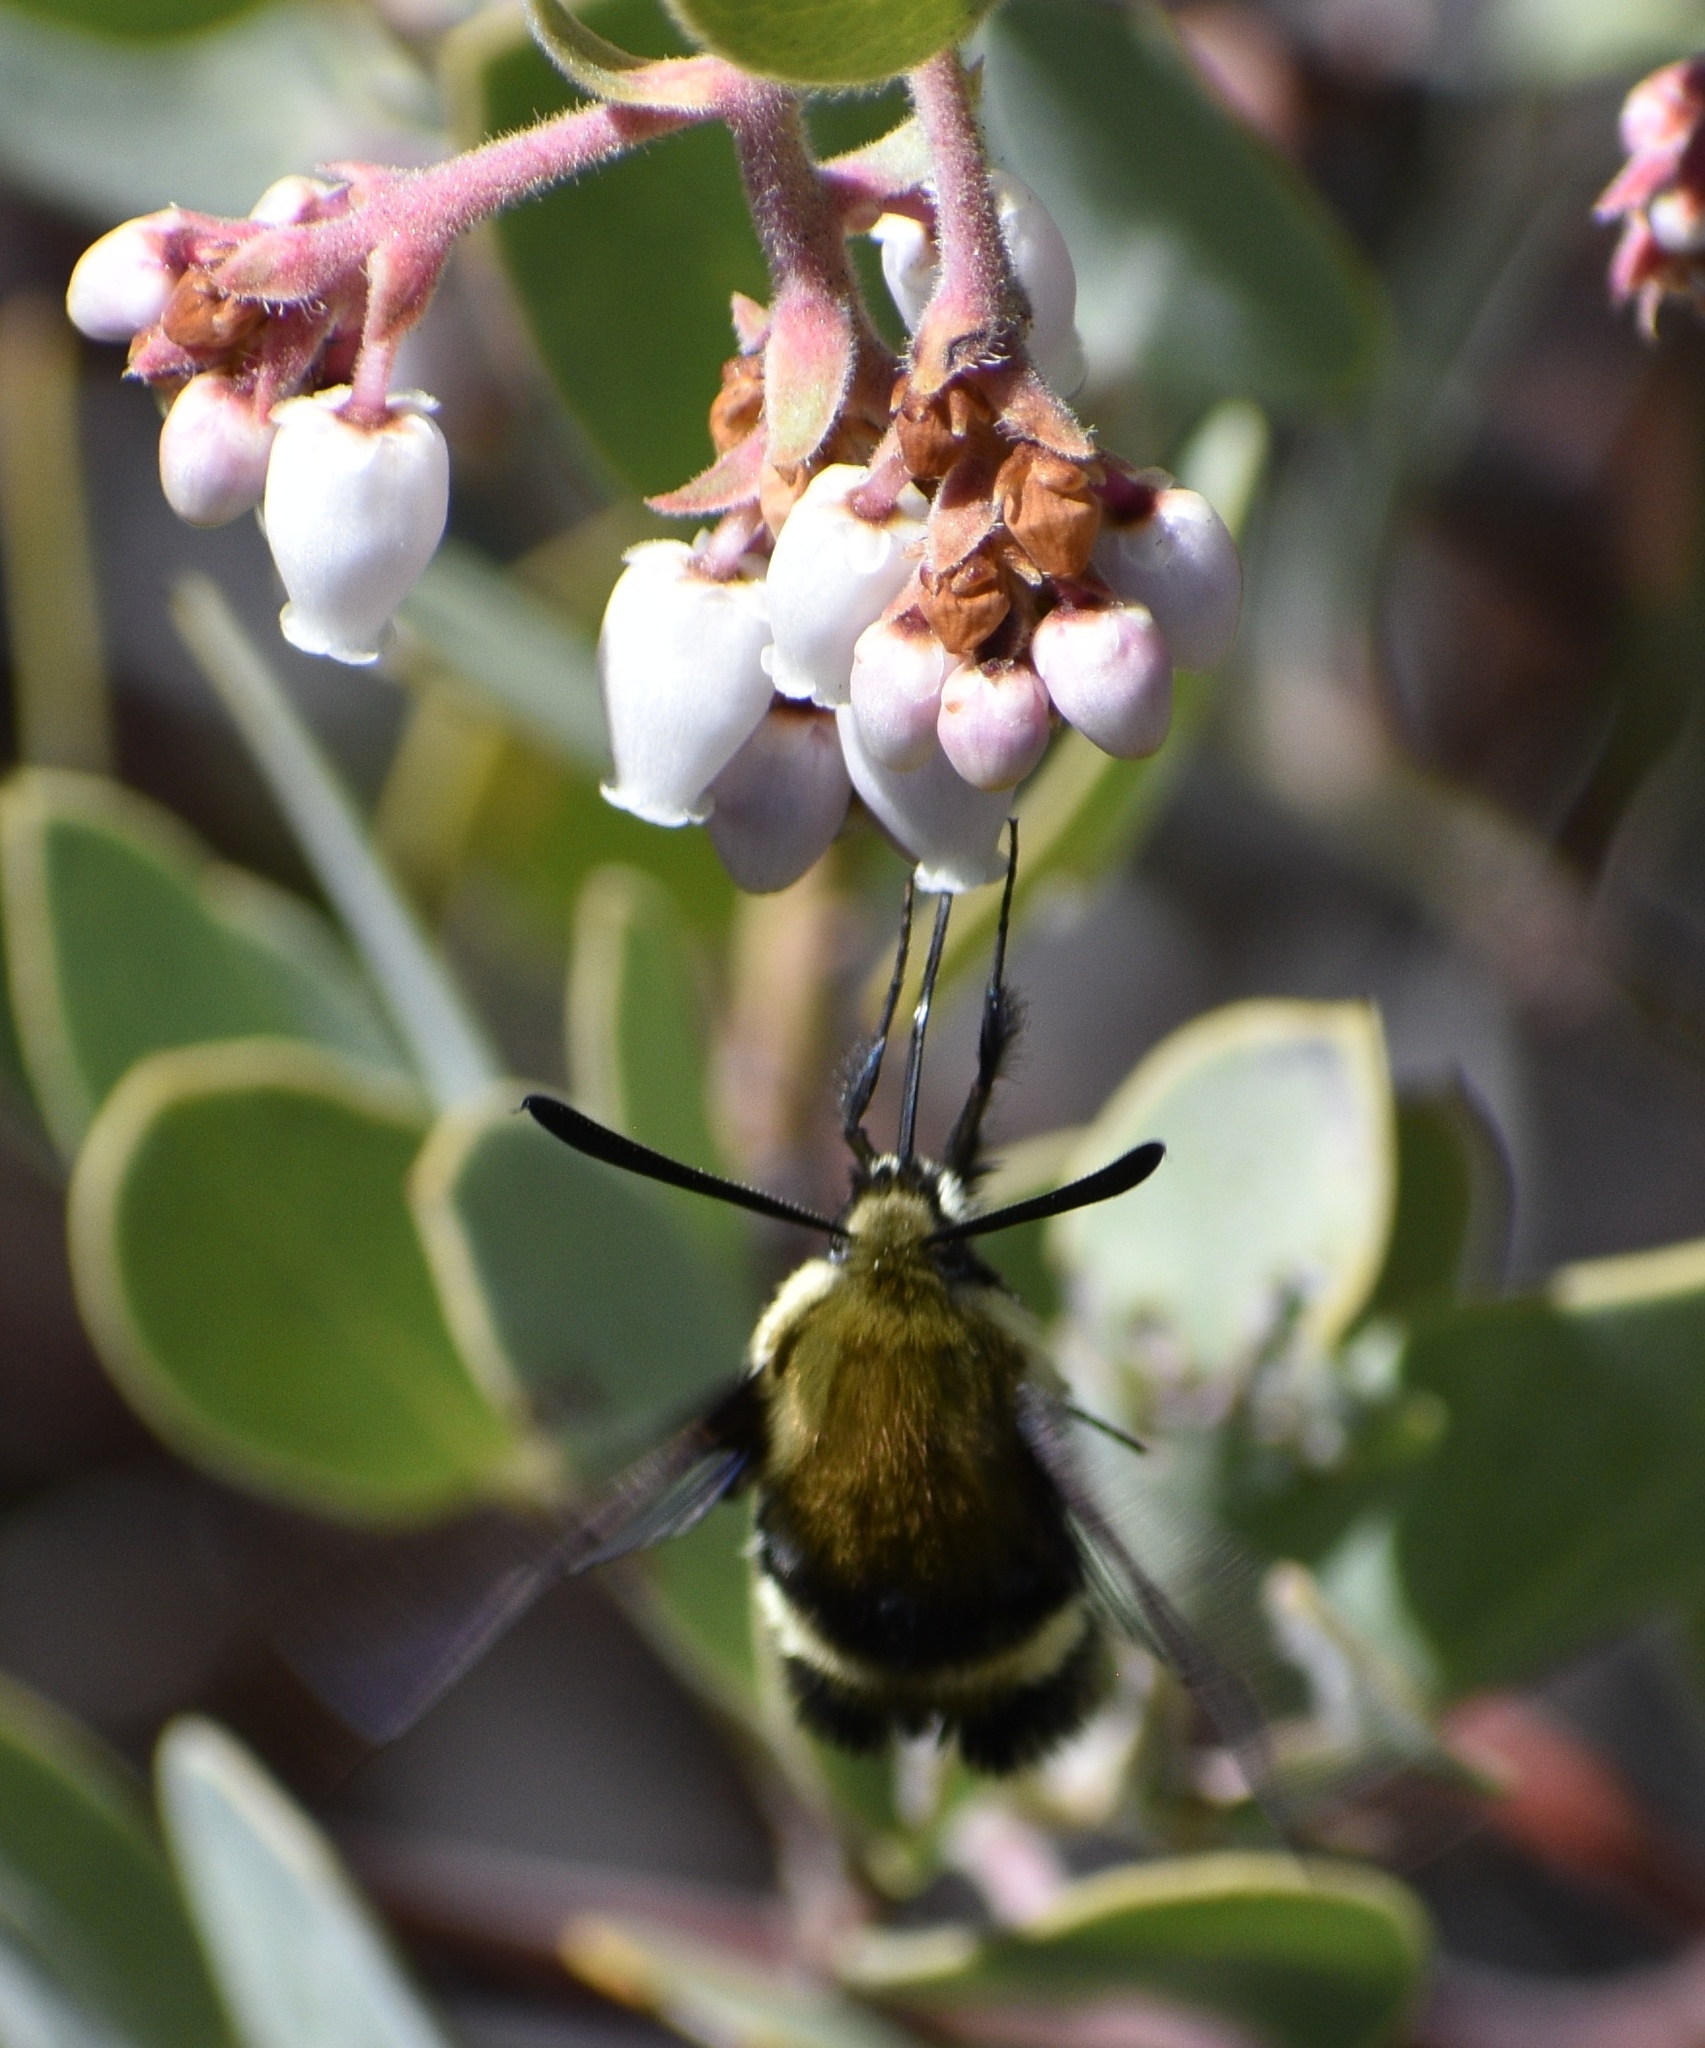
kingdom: Animalia
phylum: Arthropoda
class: Insecta
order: Lepidoptera
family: Sphingidae
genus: Hemaris
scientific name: Hemaris thetis
